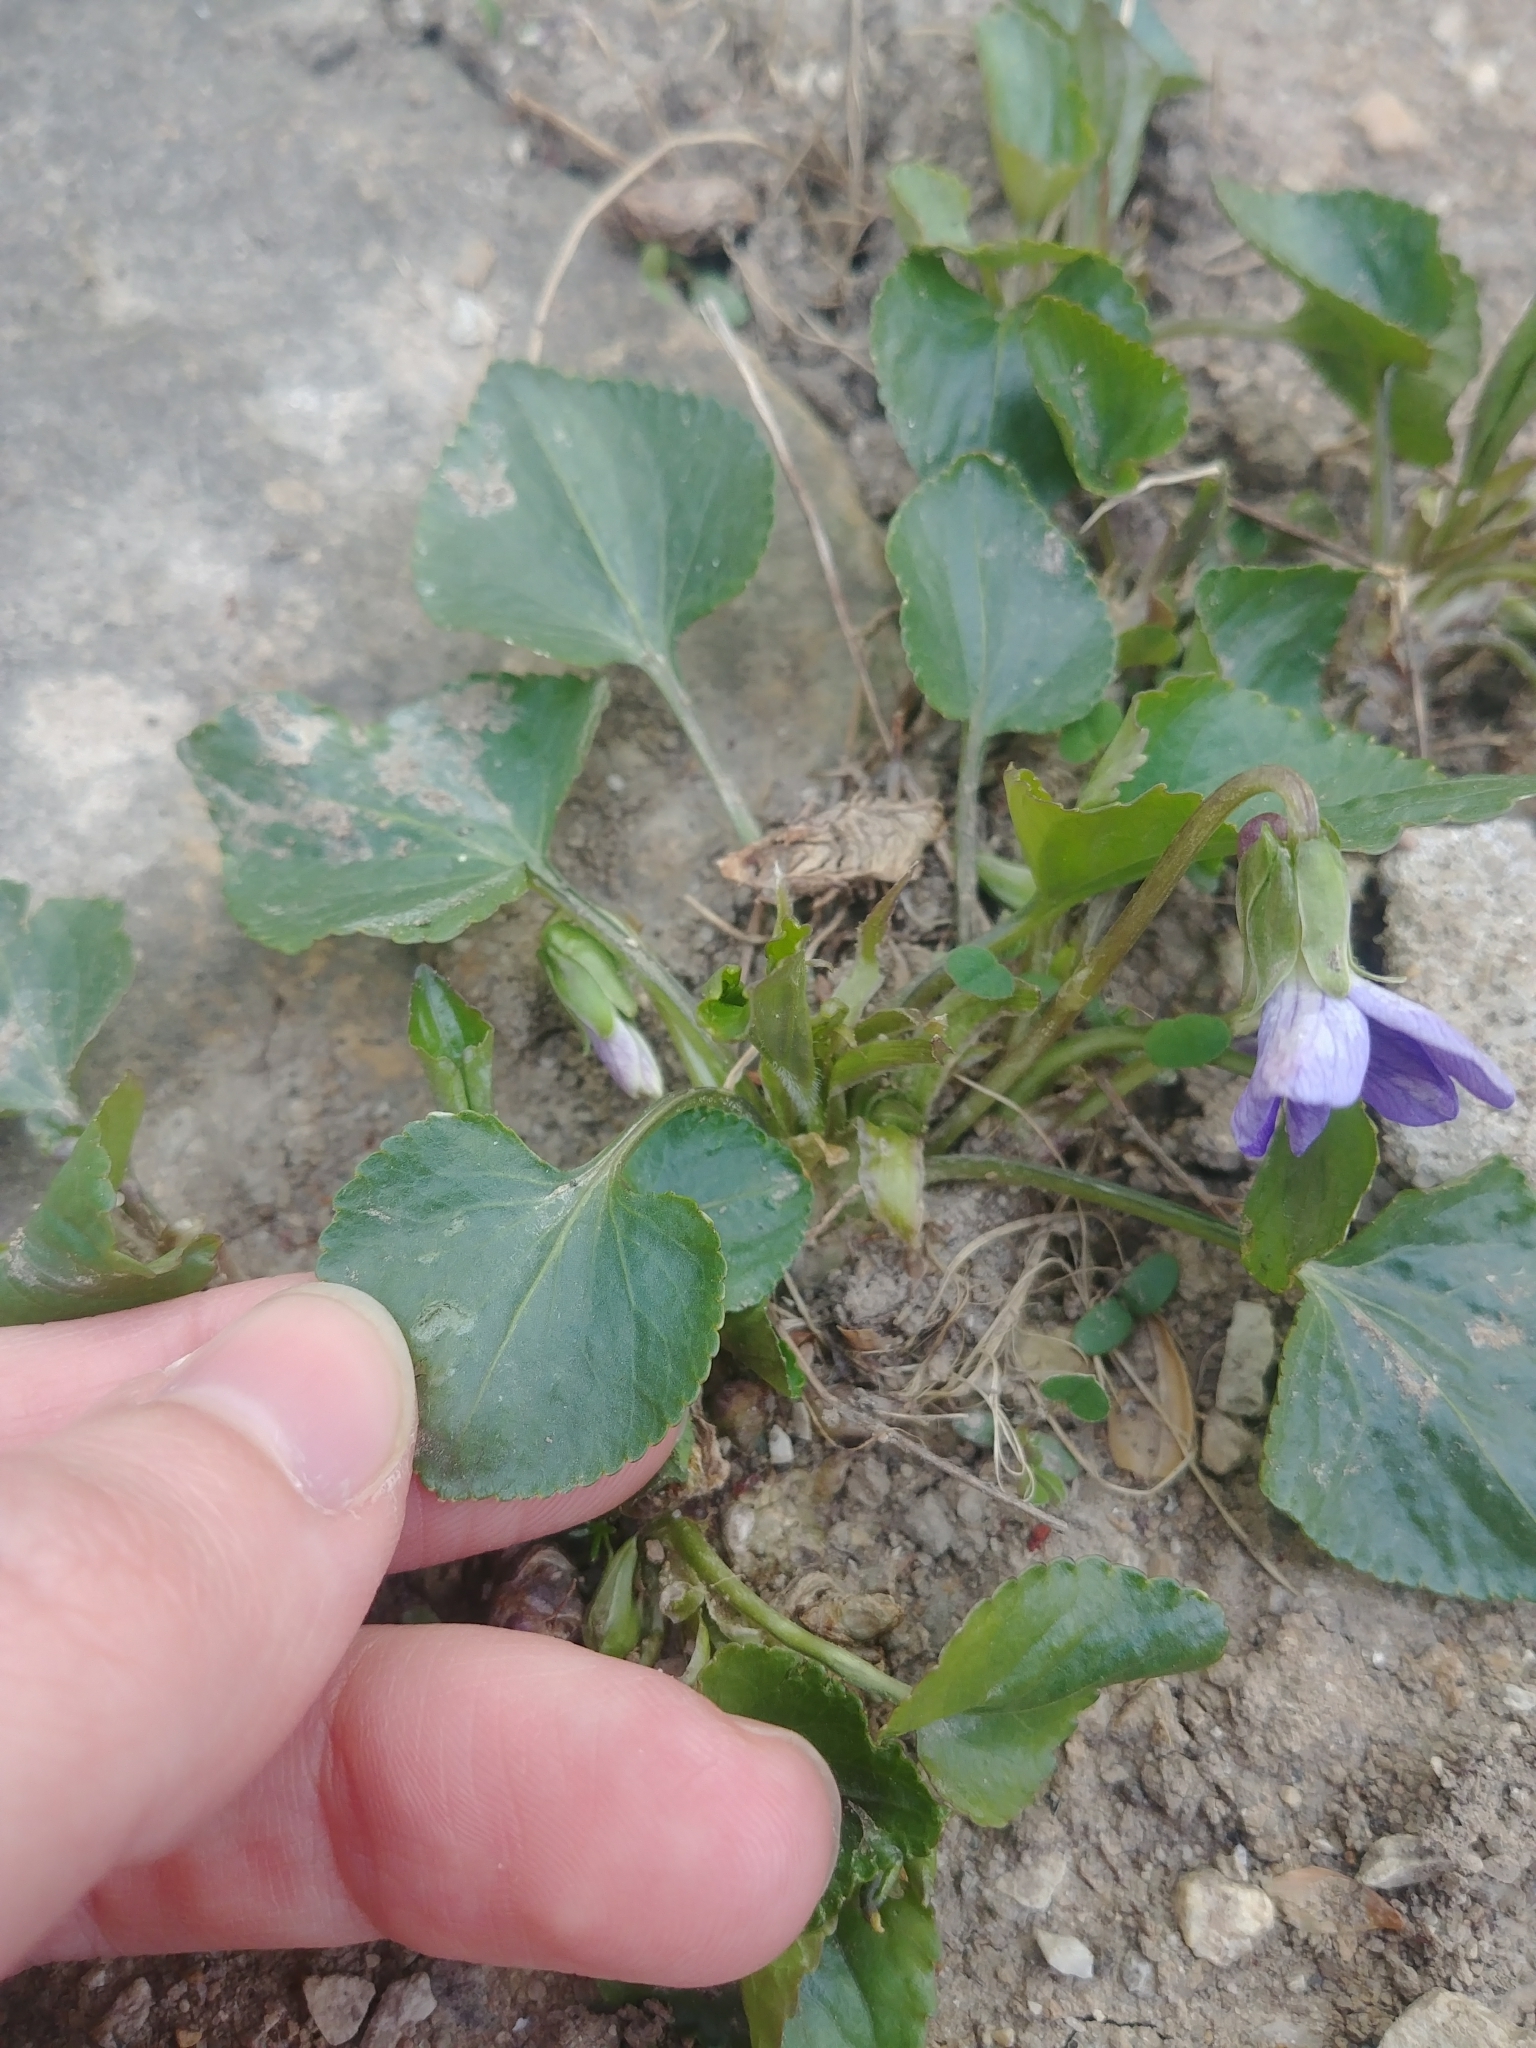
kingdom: Plantae
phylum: Tracheophyta
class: Magnoliopsida
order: Malpighiales
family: Violaceae
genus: Viola
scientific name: Viola sororia
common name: Dooryard violet
